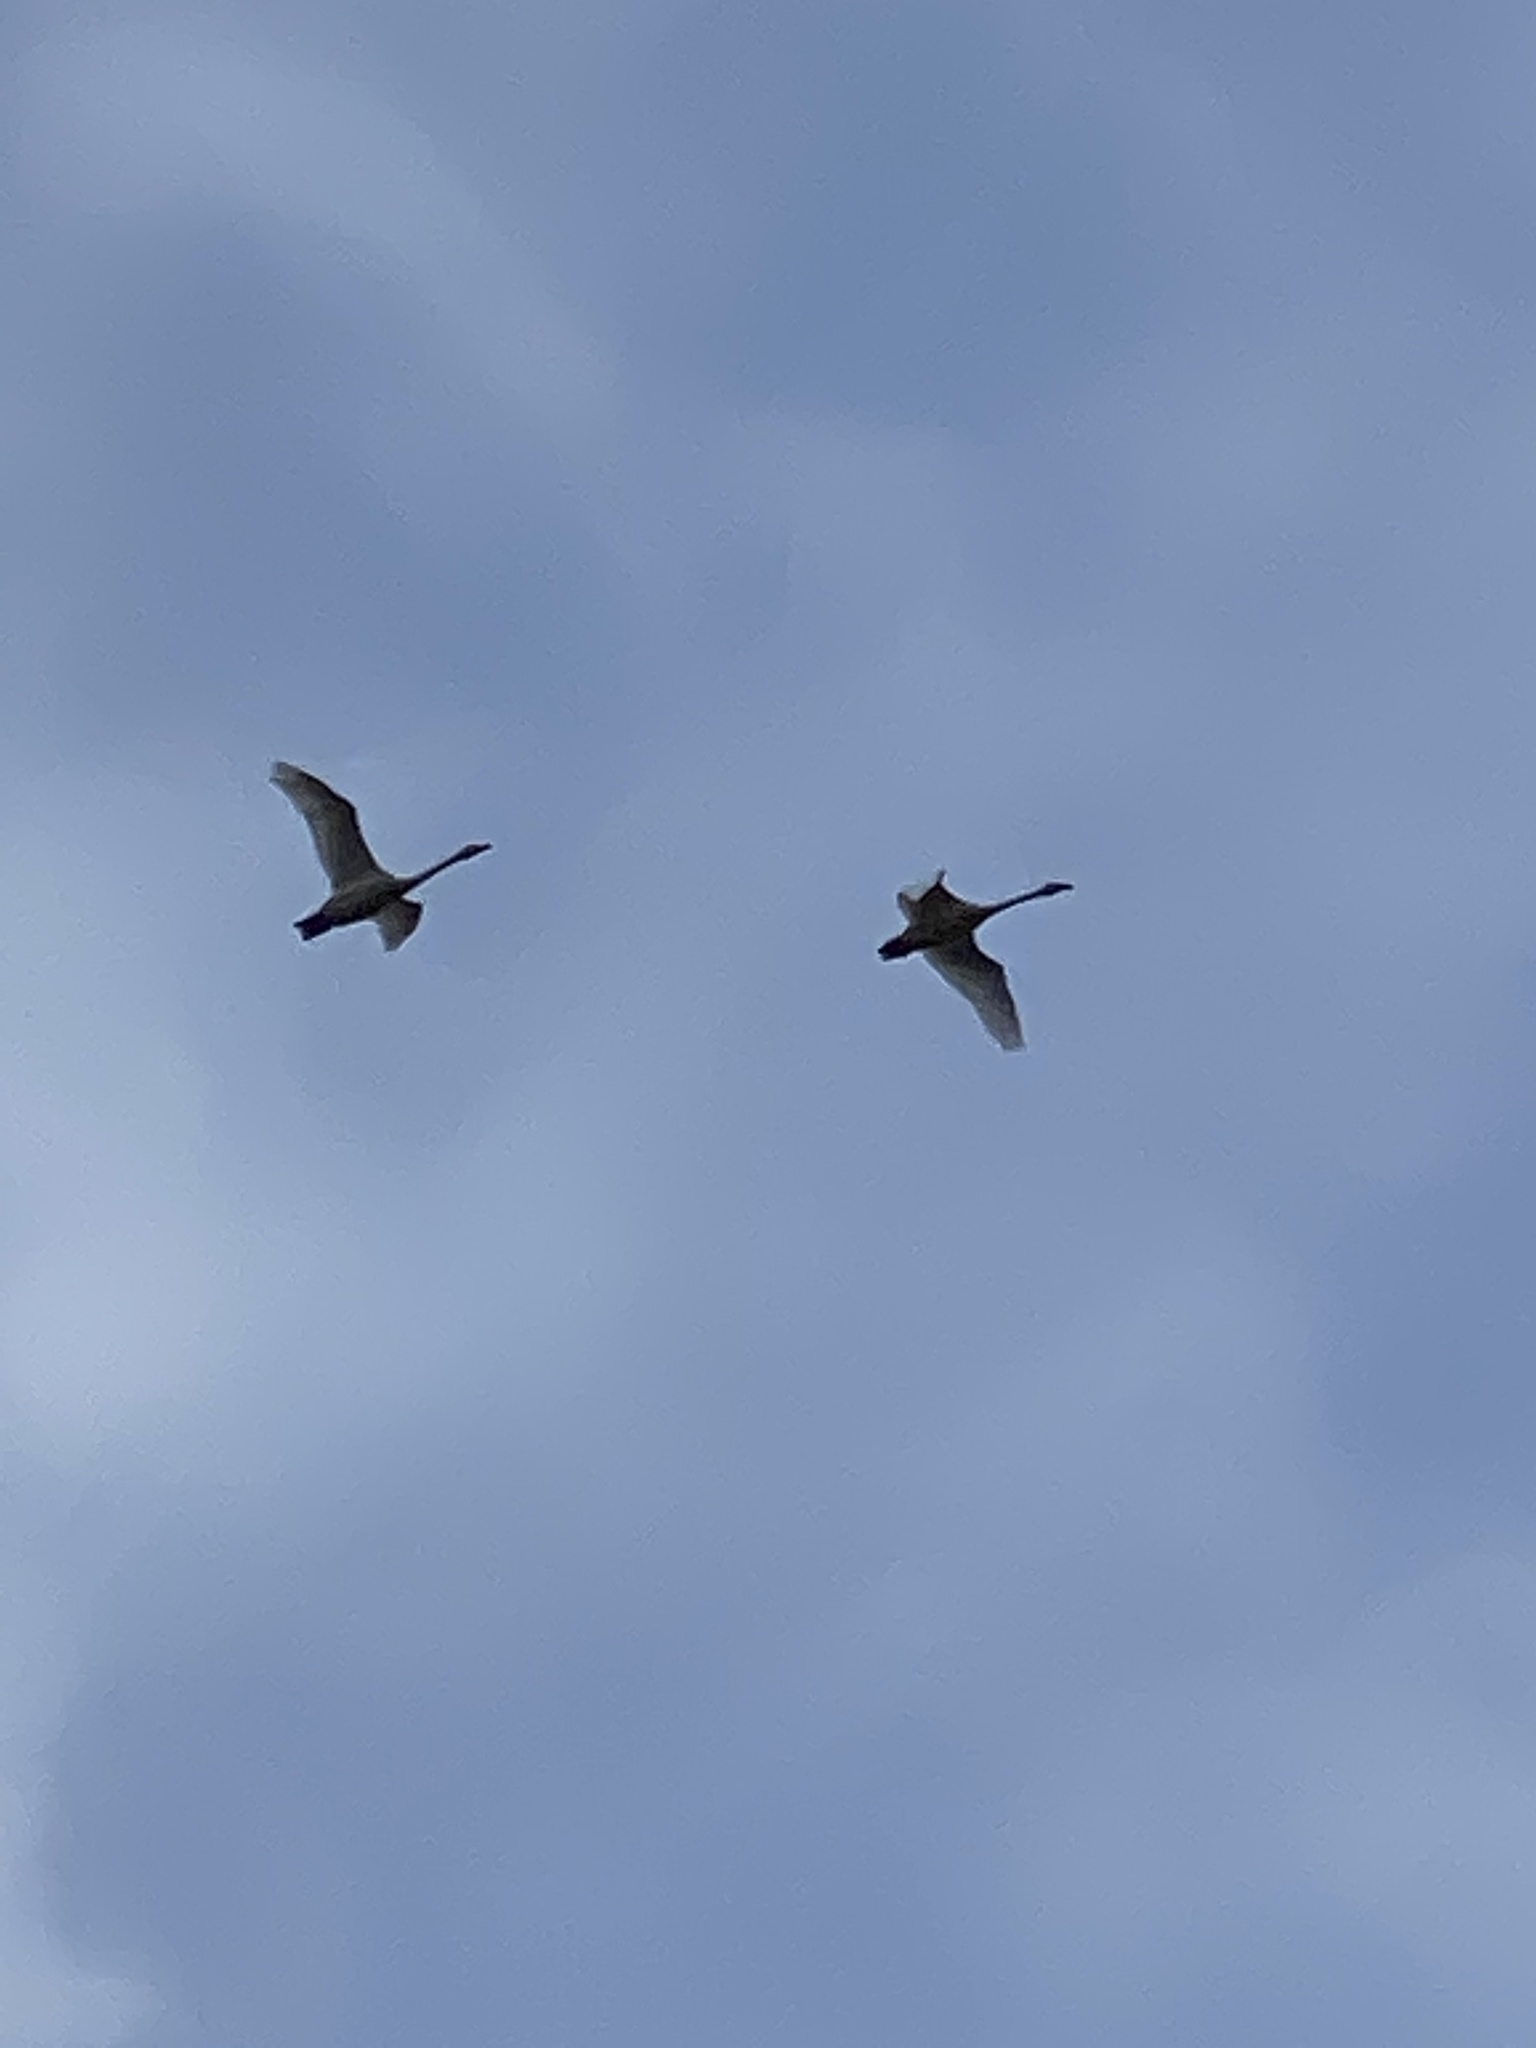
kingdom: Animalia
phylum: Chordata
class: Aves
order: Anseriformes
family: Anatidae
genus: Cygnus
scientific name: Cygnus columbianus
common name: Tundra swan
